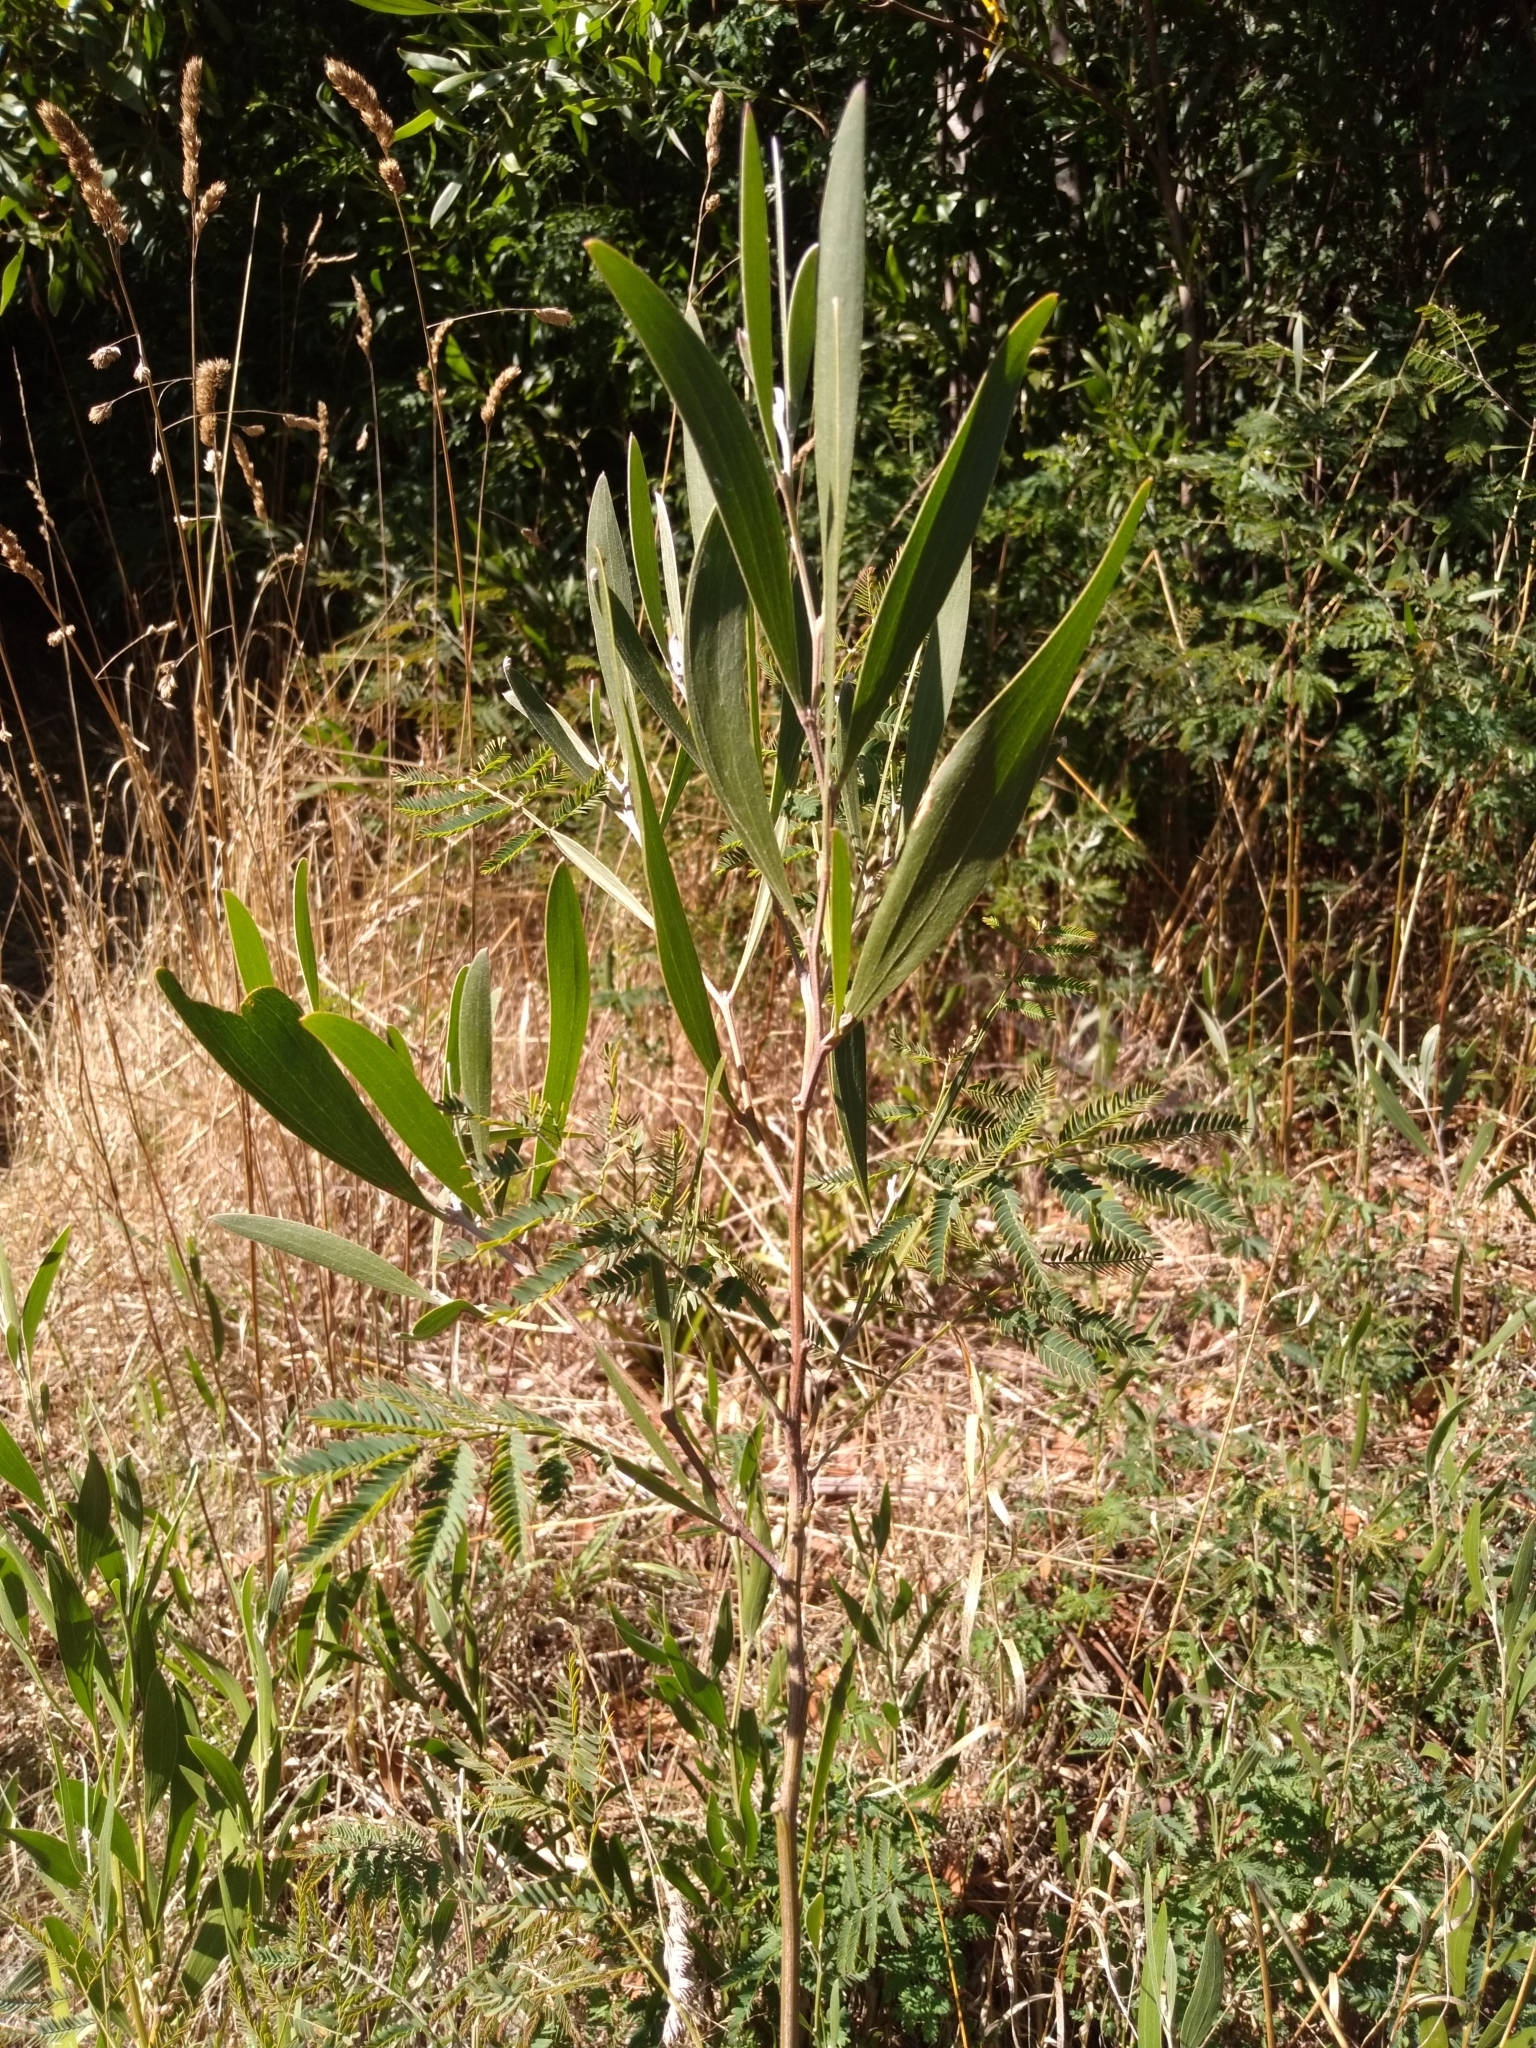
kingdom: Plantae
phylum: Tracheophyta
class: Magnoliopsida
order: Fabales
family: Fabaceae
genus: Acacia
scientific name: Acacia melanoxylon
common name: Blackwood
